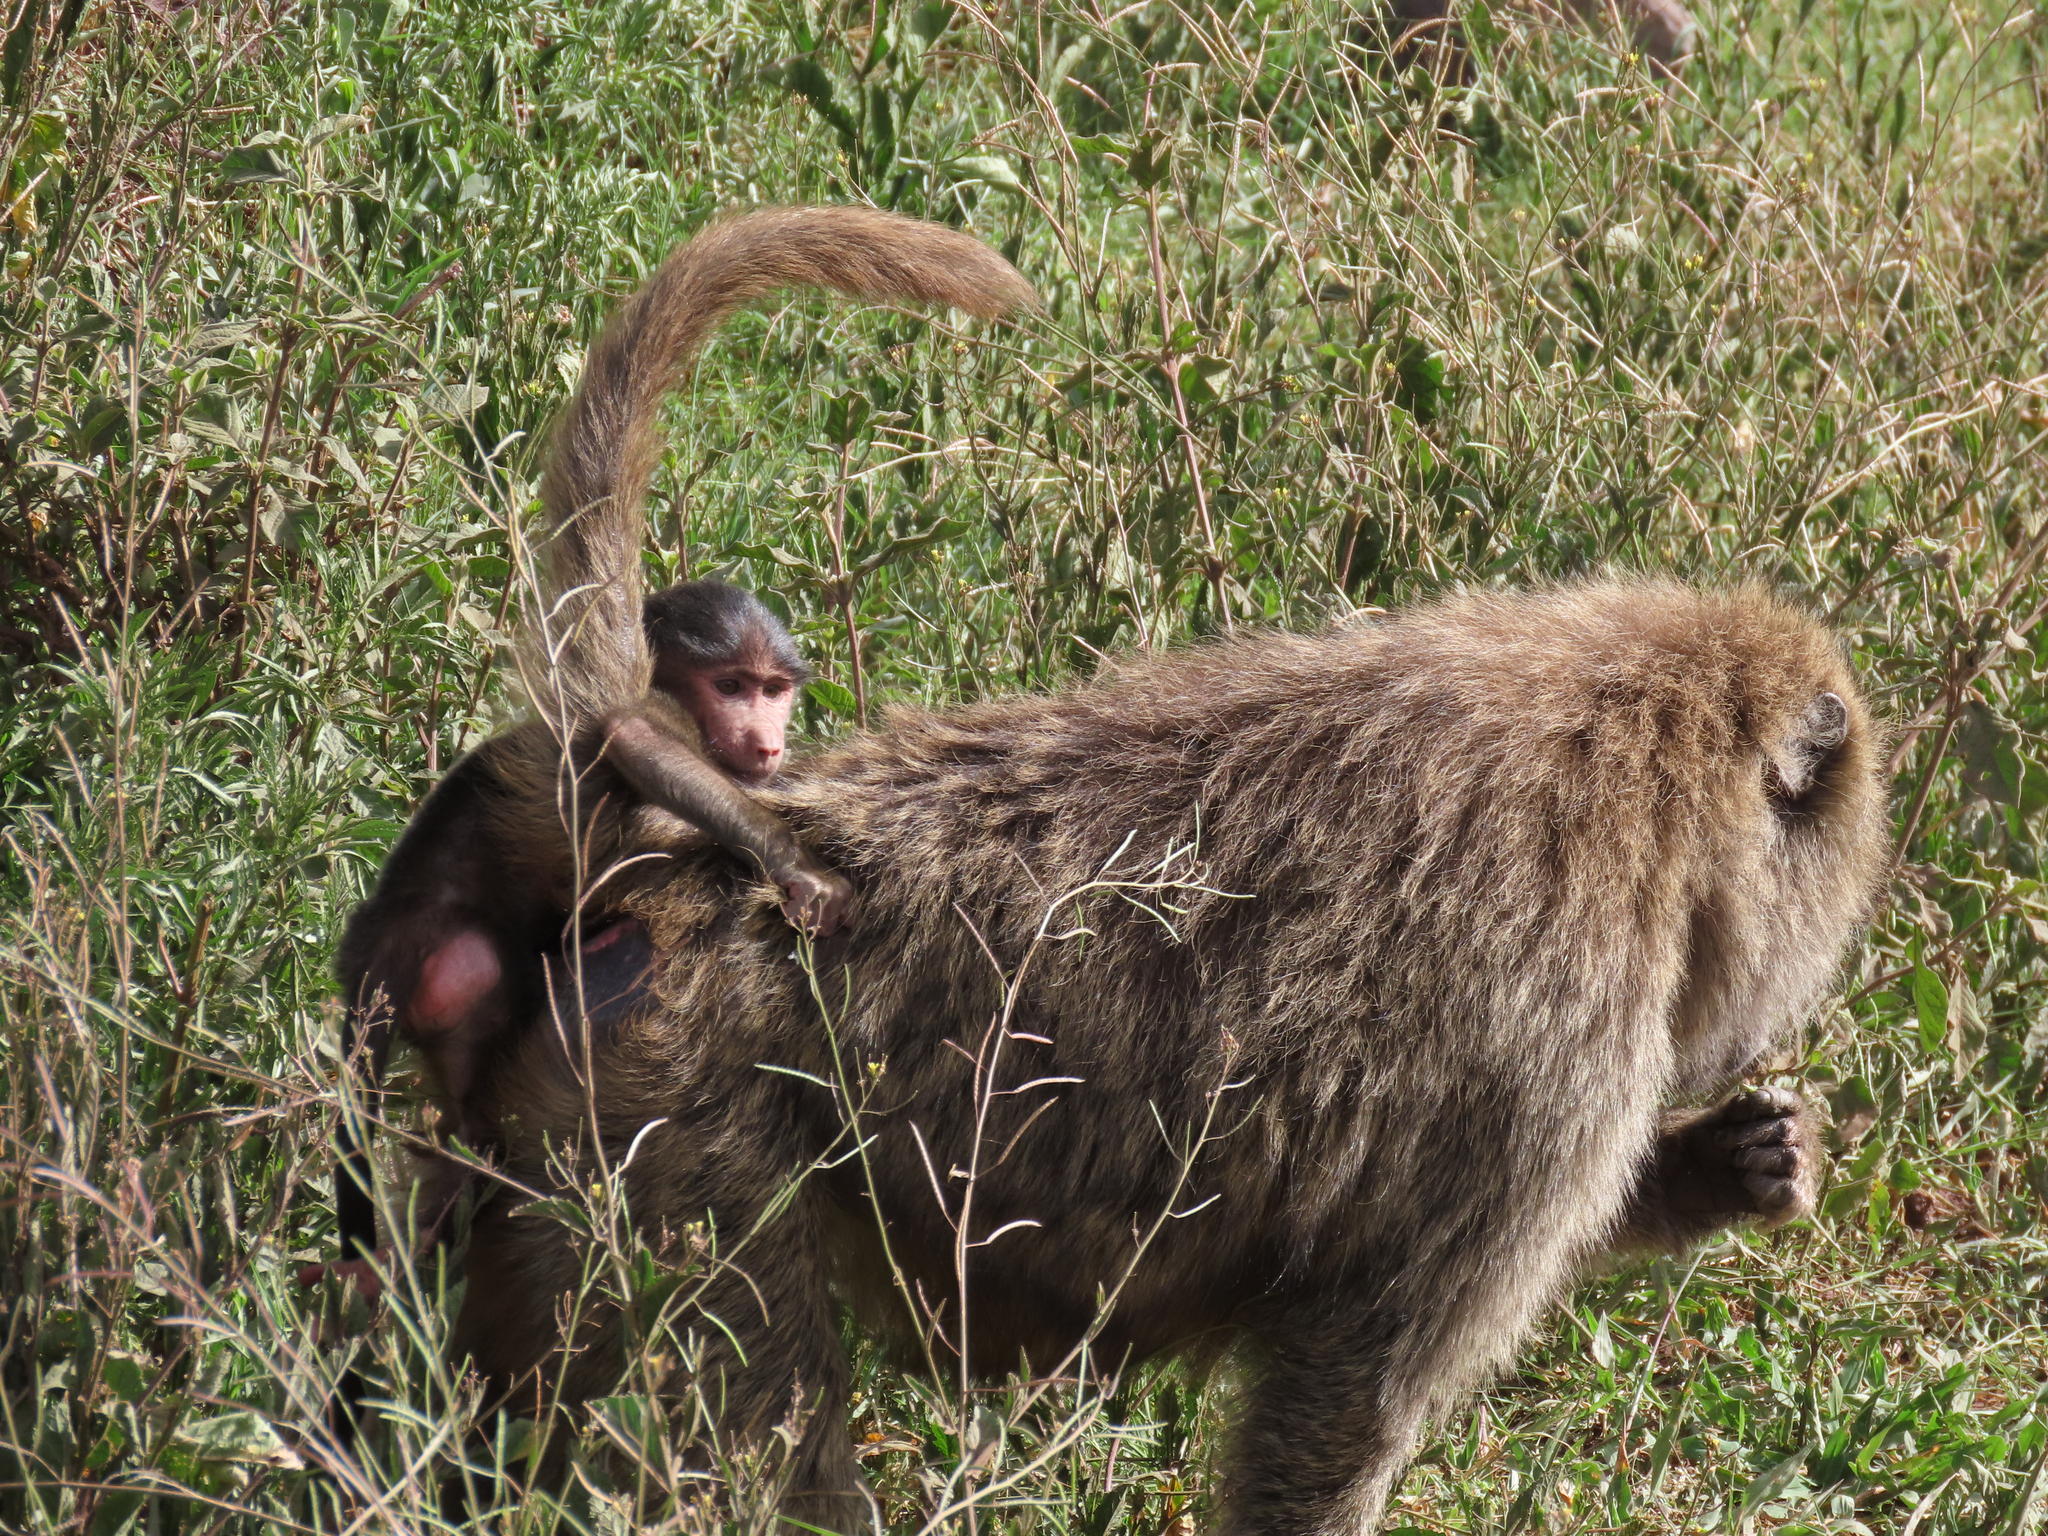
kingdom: Animalia
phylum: Chordata
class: Mammalia
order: Primates
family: Cercopithecidae
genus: Papio
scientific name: Papio anubis
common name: Olive baboon
